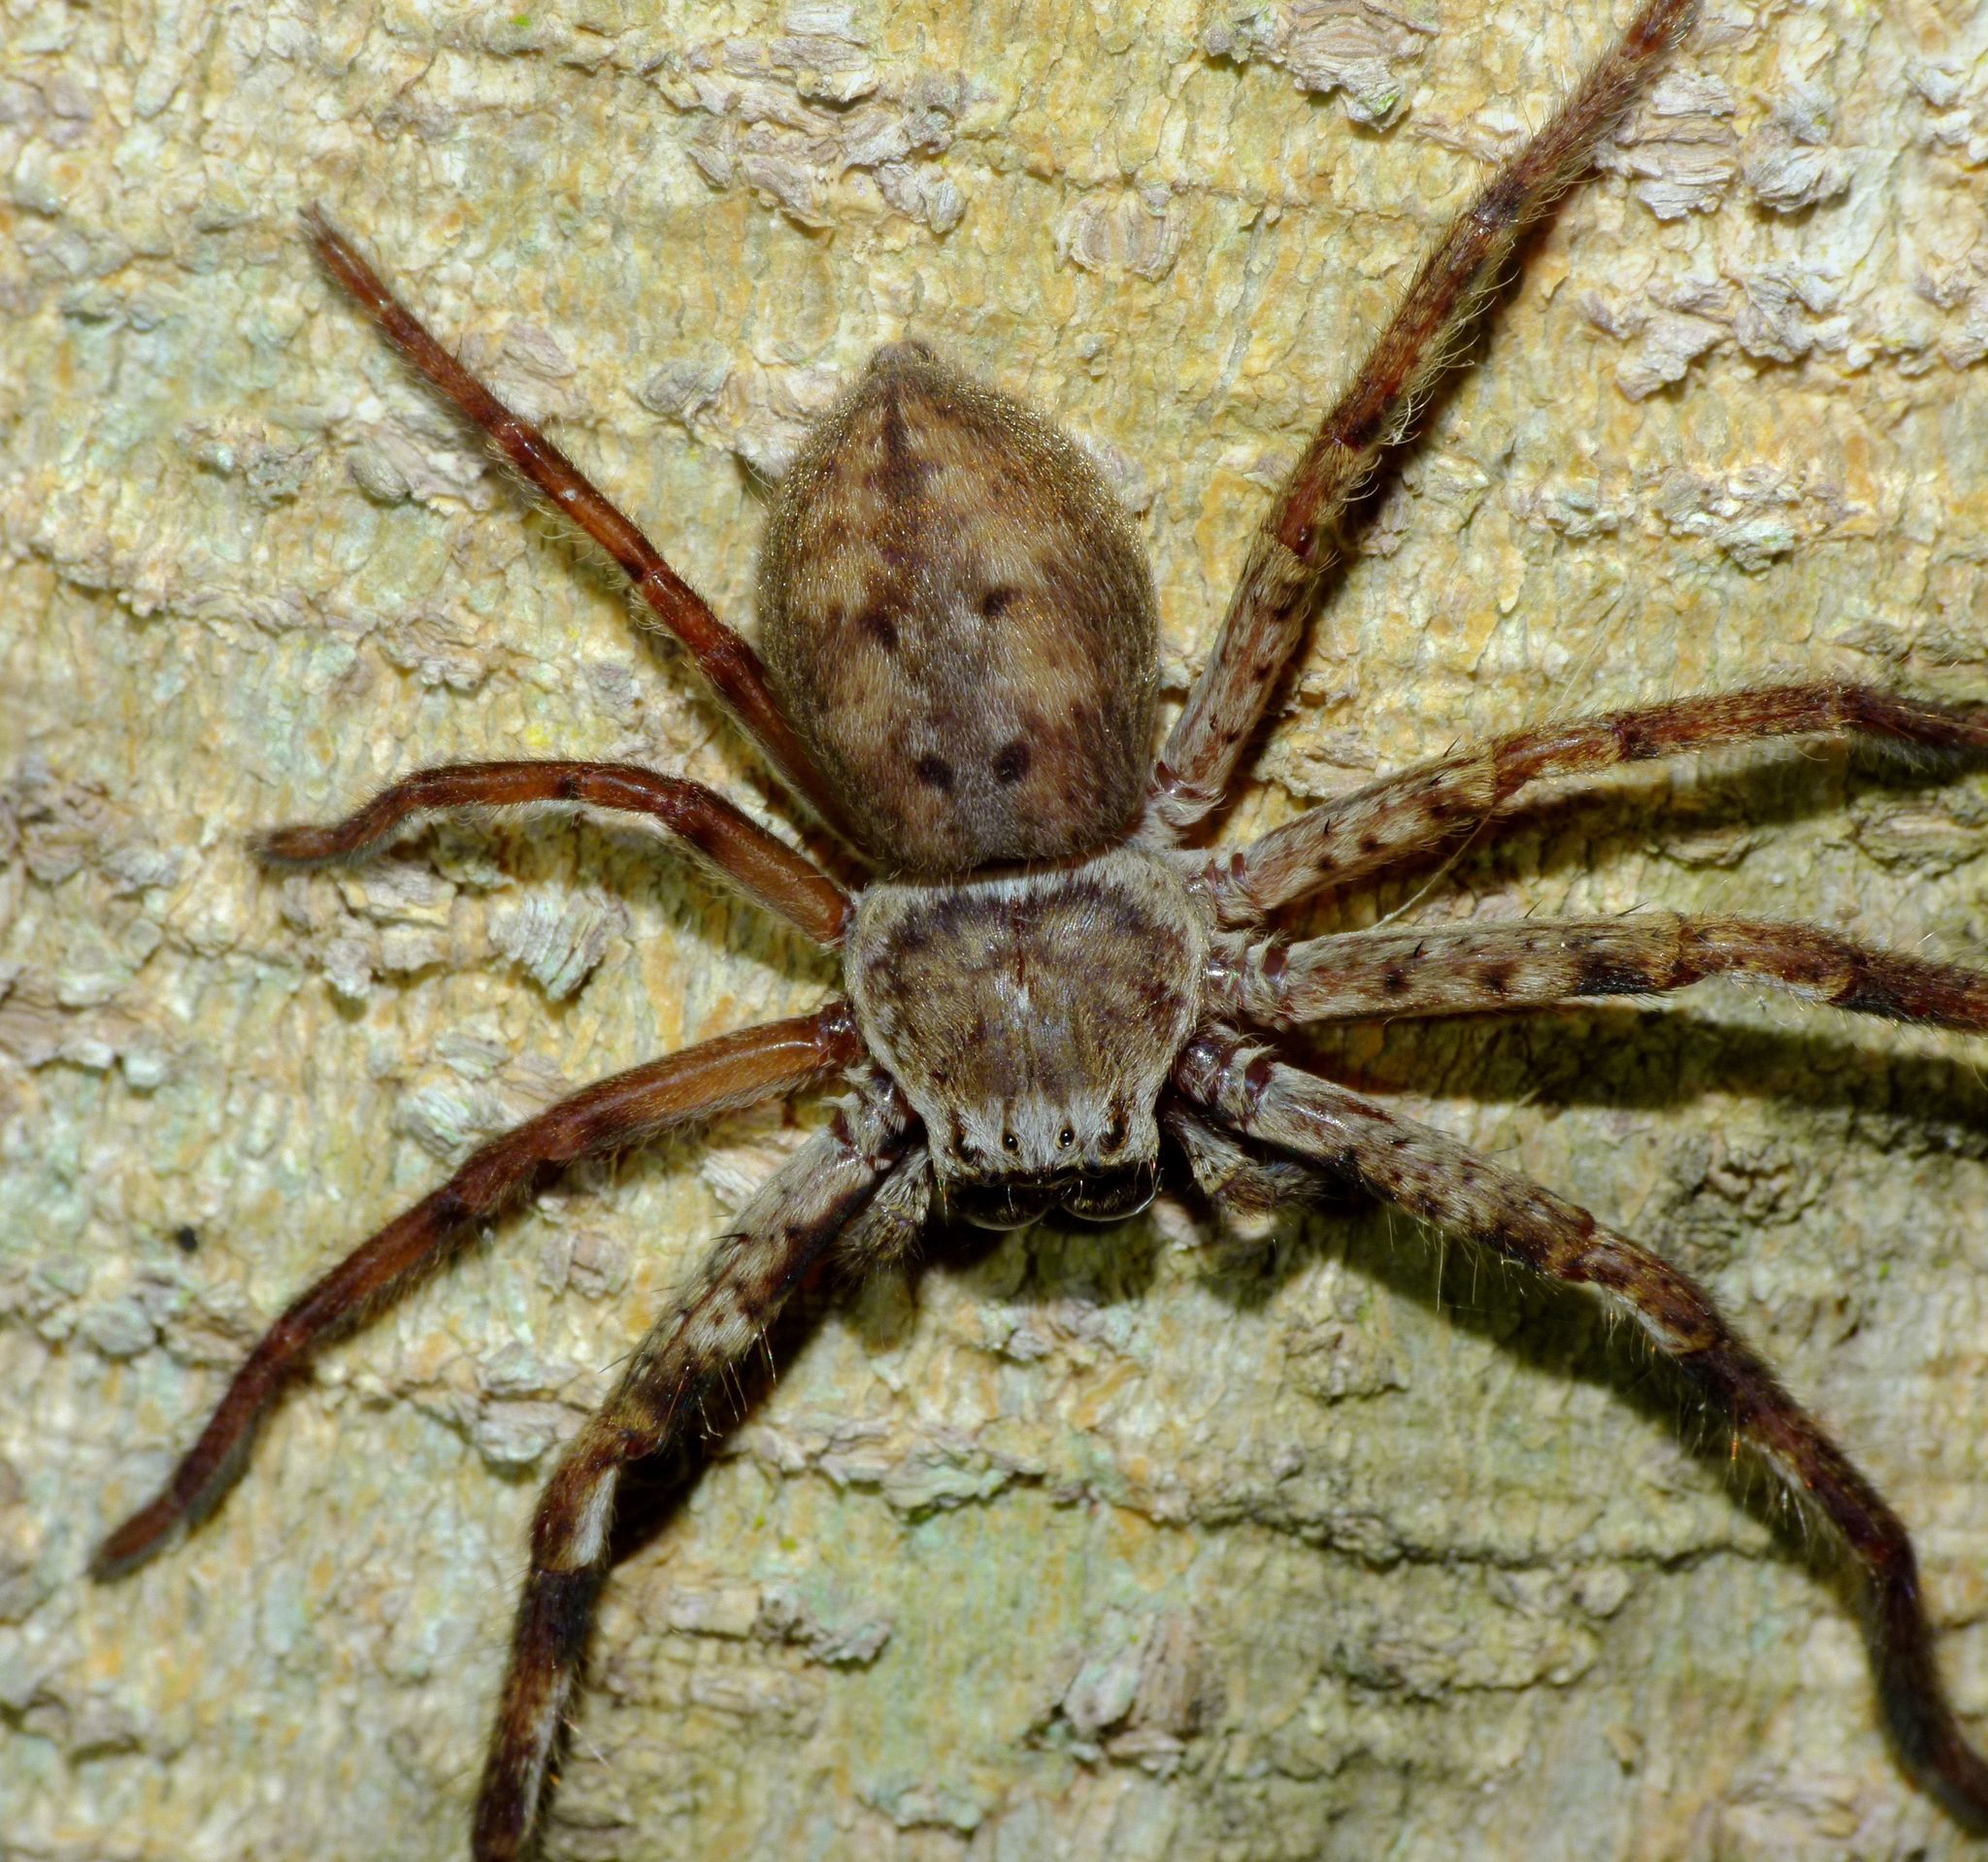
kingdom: Animalia
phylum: Arthropoda
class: Arachnida
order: Araneae
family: Sparassidae
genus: Isopeda
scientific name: Isopeda vasta
